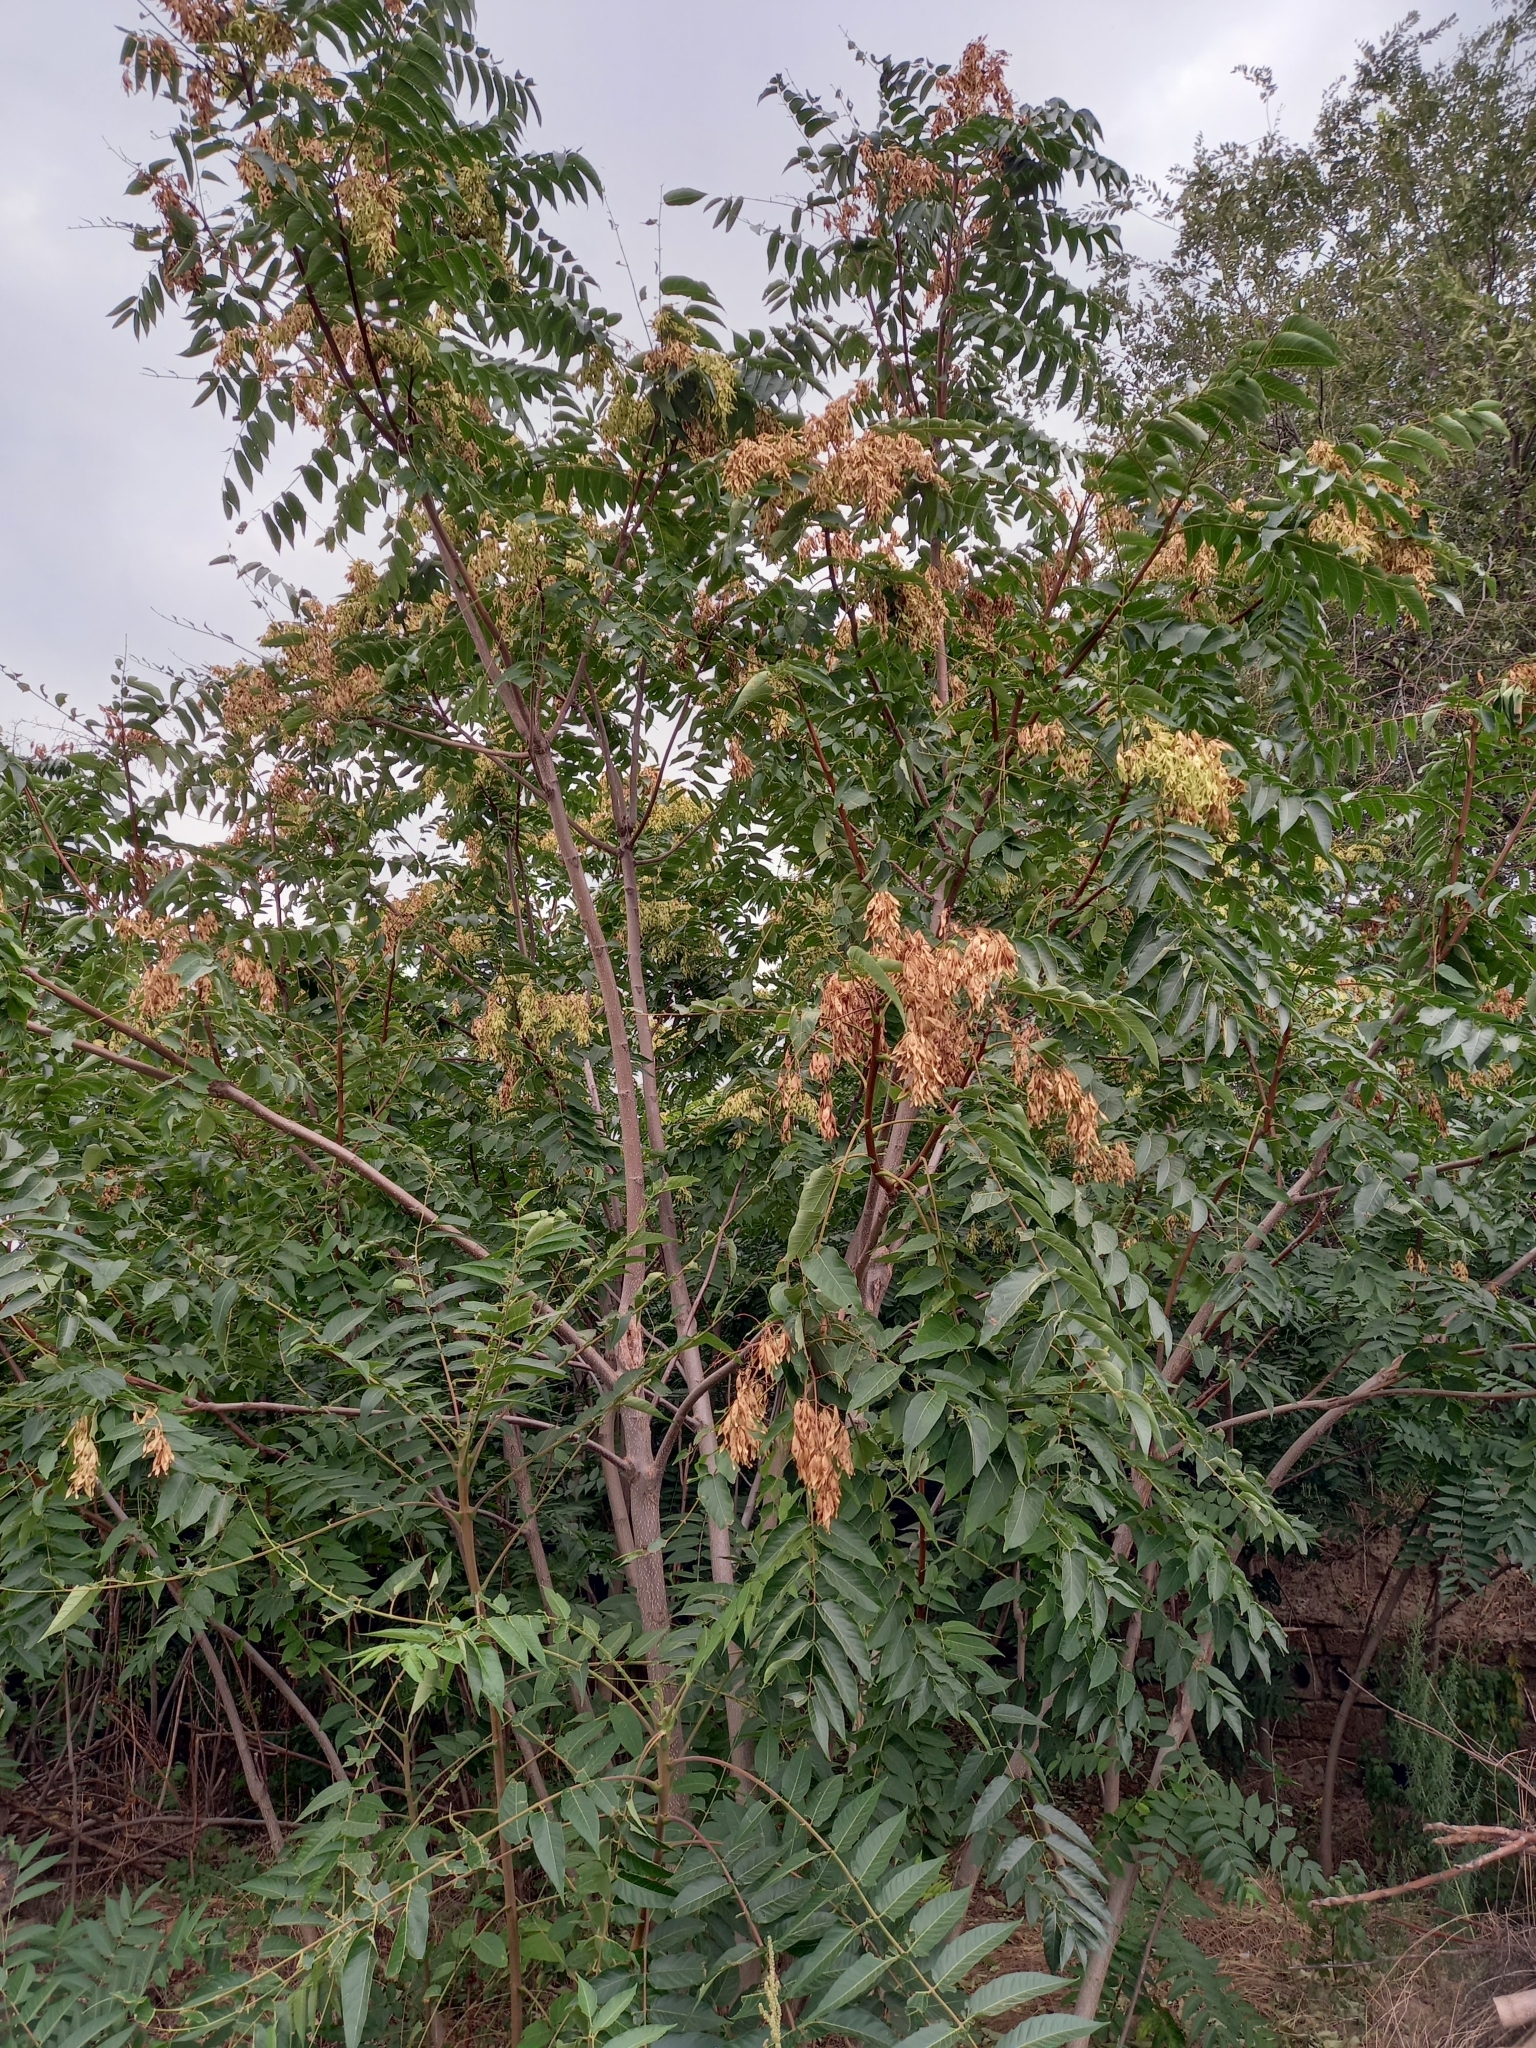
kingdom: Plantae
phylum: Tracheophyta
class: Magnoliopsida
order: Sapindales
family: Simaroubaceae
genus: Ailanthus
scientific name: Ailanthus altissima
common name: Tree-of-heaven
